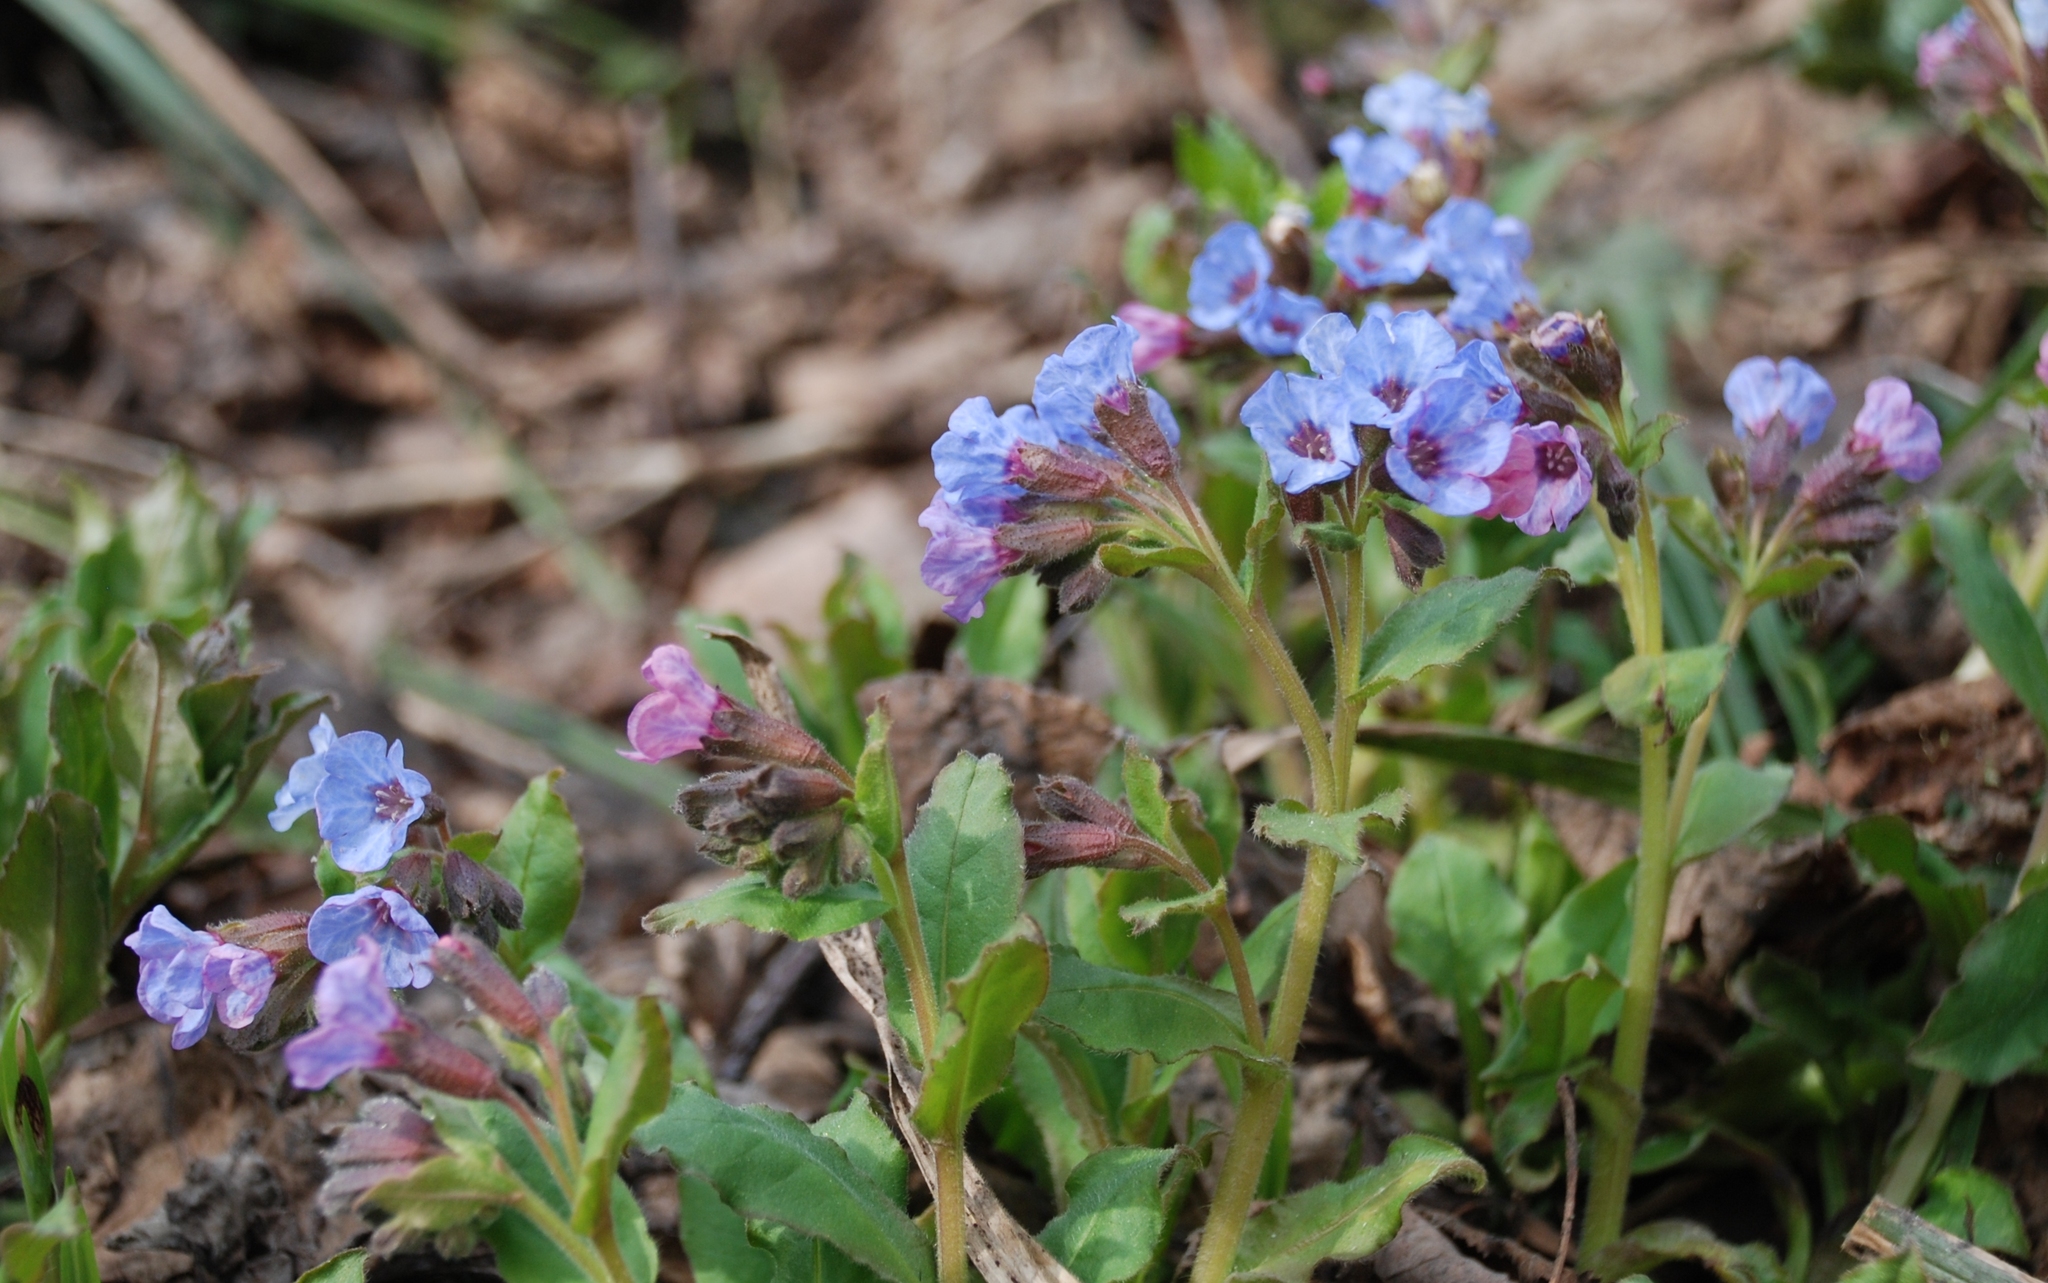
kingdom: Plantae
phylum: Tracheophyta
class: Magnoliopsida
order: Boraginales
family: Boraginaceae
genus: Pulmonaria
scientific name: Pulmonaria obscura
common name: Suffolk lungwort
